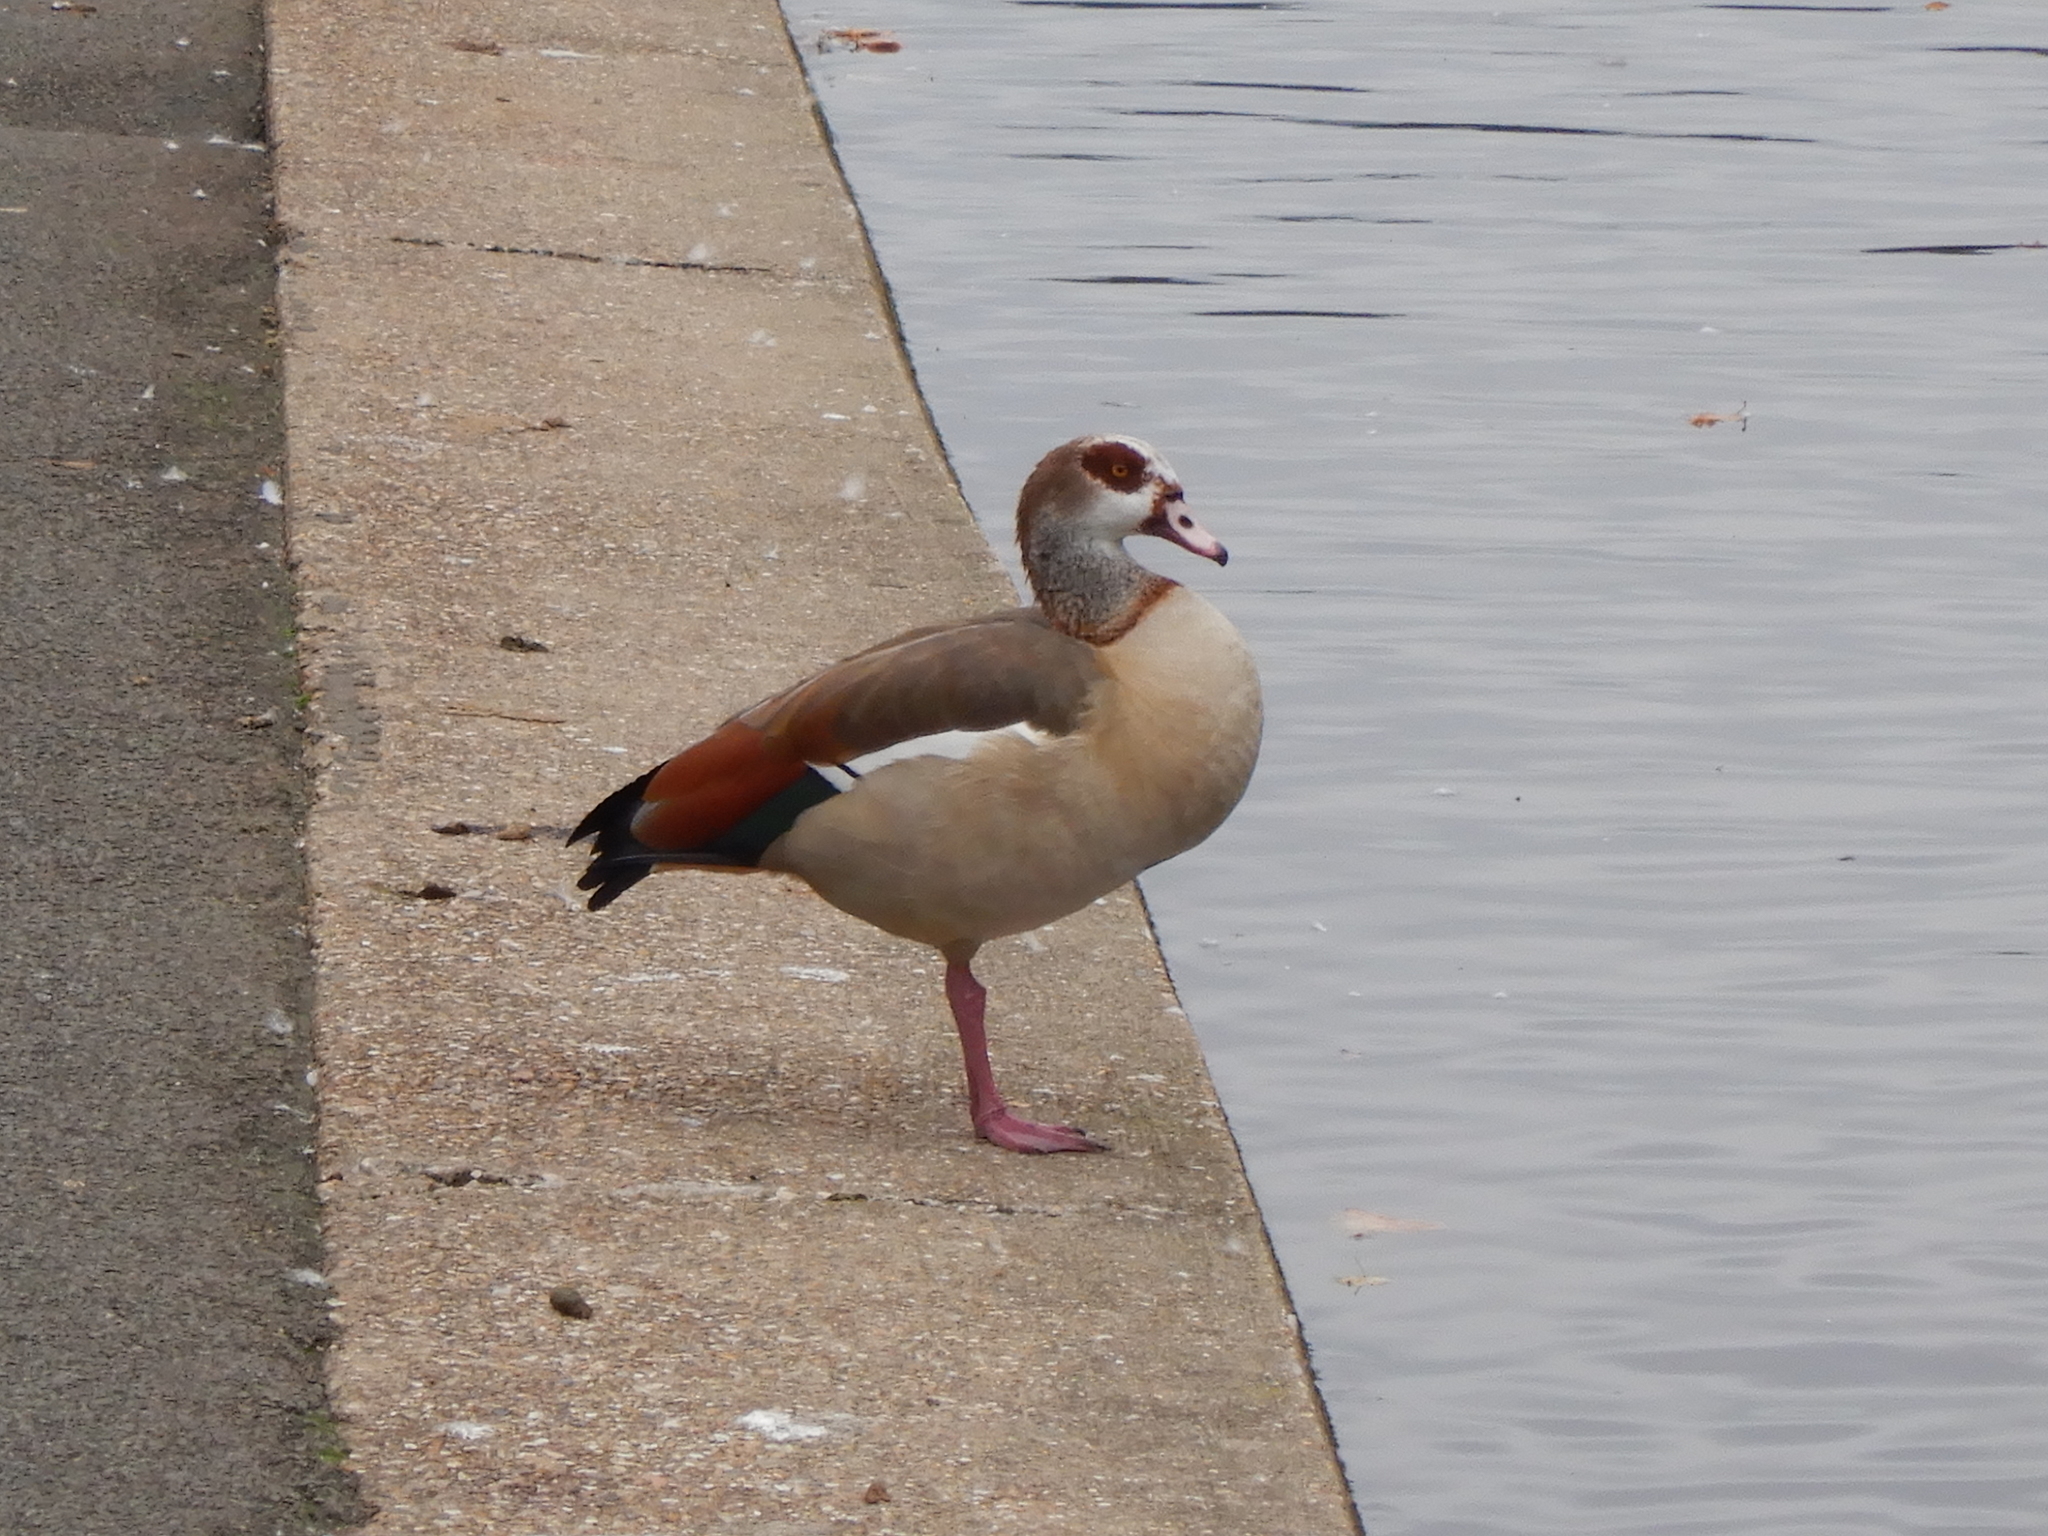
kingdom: Animalia
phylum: Chordata
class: Aves
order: Anseriformes
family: Anatidae
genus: Alopochen
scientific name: Alopochen aegyptiaca
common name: Egyptian goose
